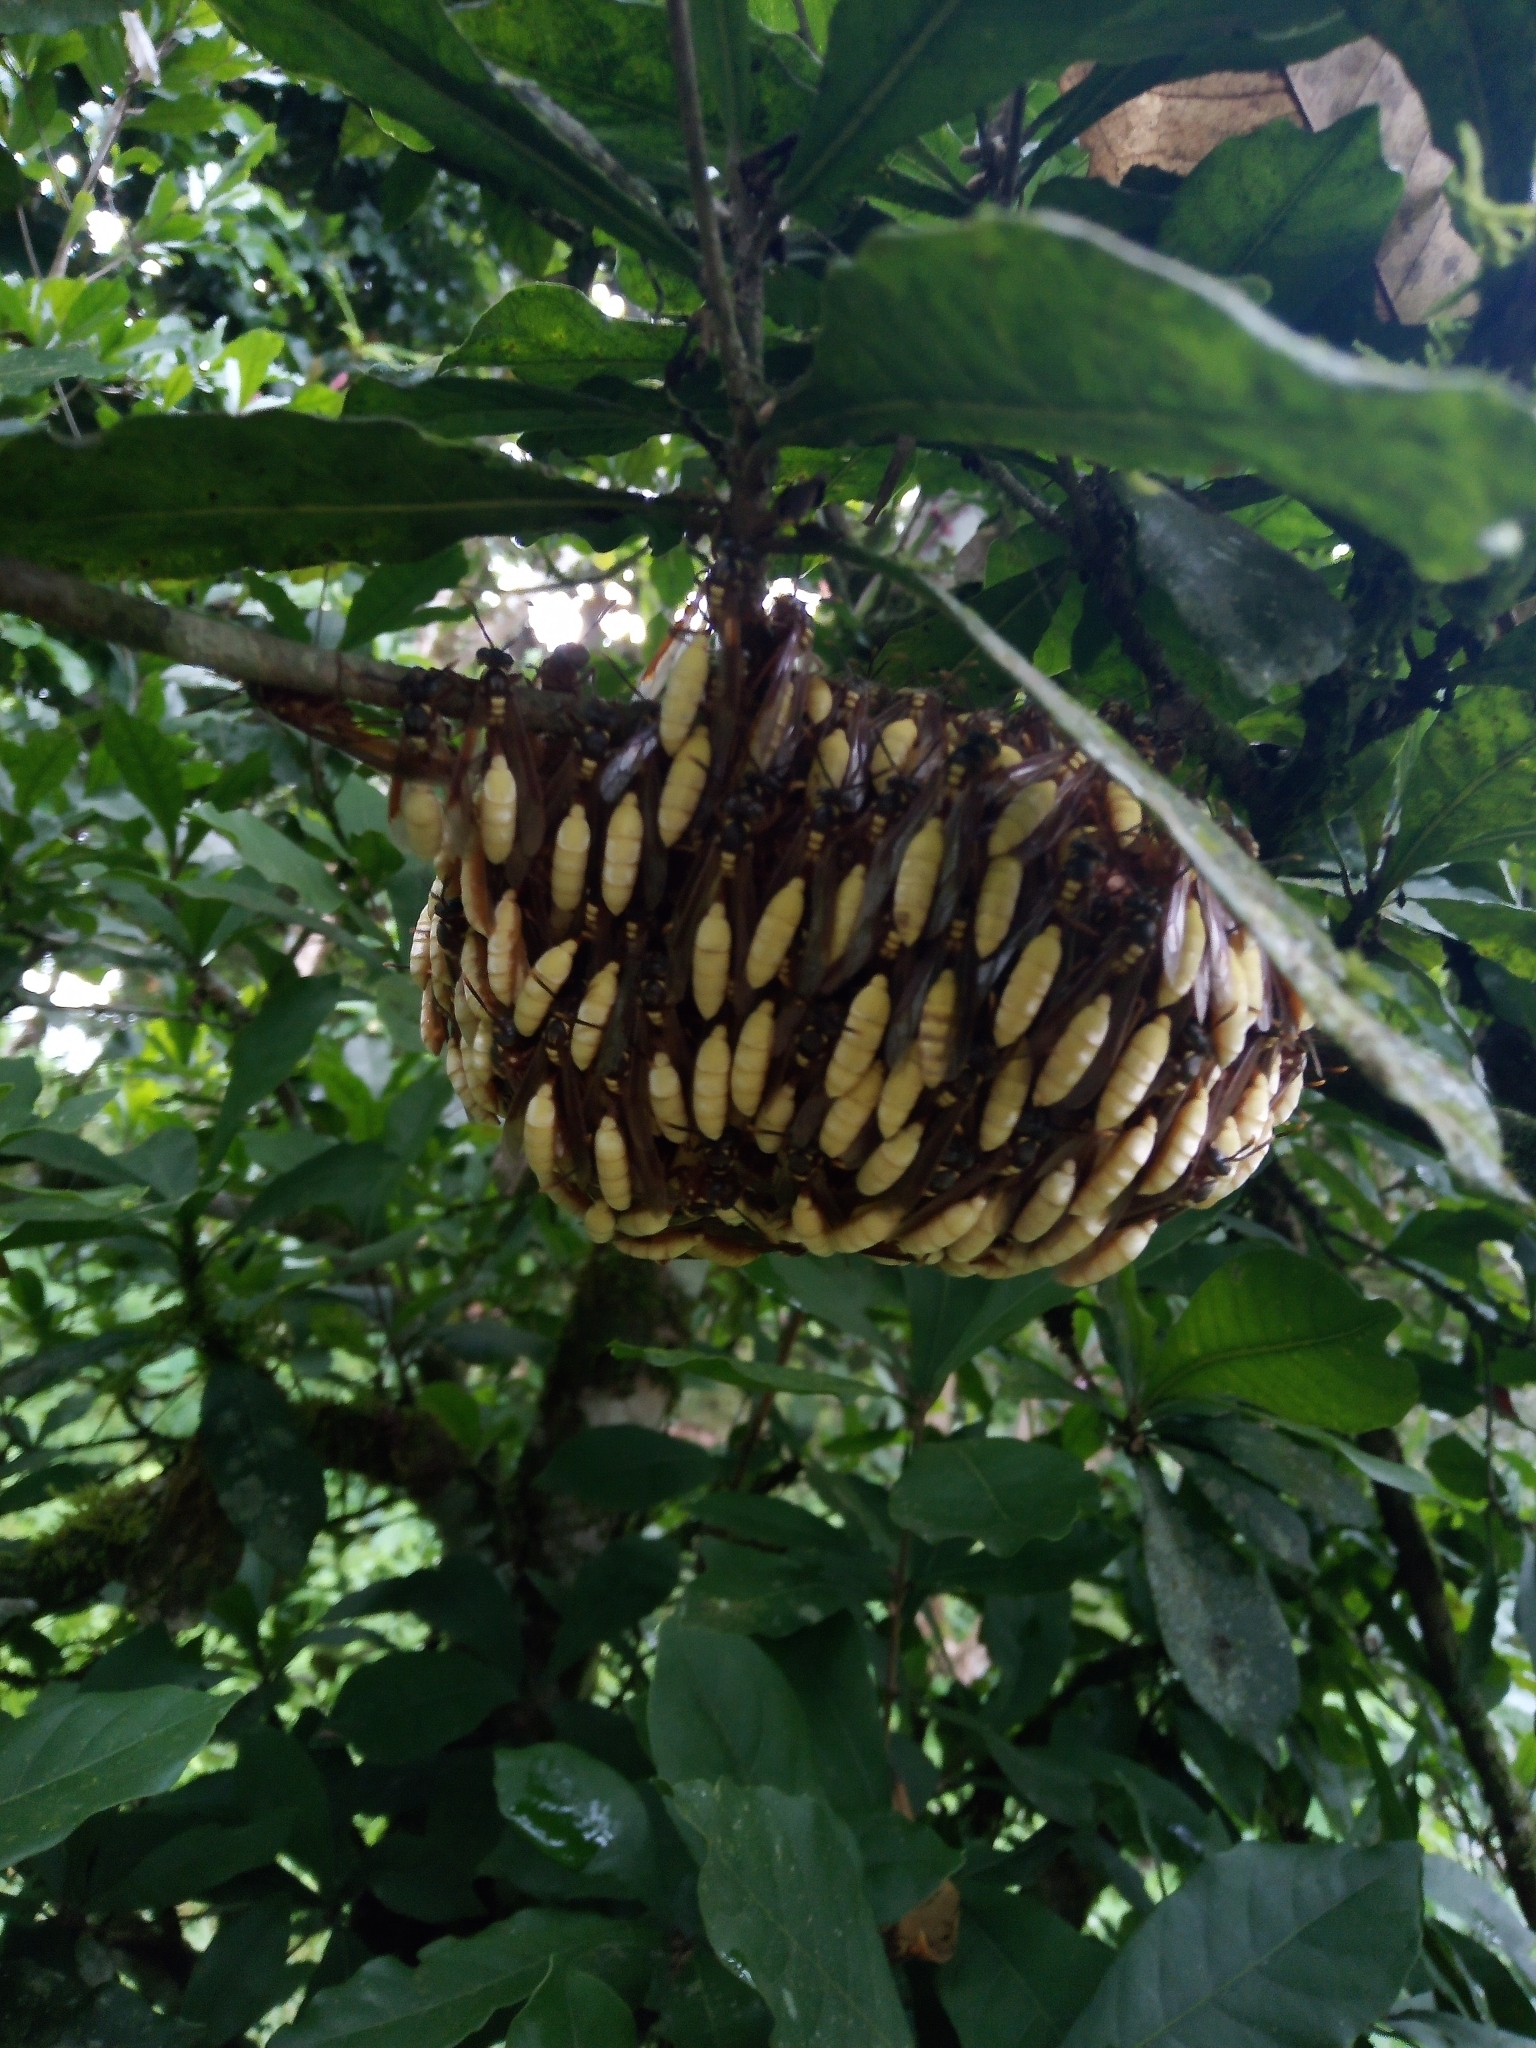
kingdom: Animalia
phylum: Arthropoda
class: Insecta
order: Hymenoptera
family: Vespidae
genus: Apoica
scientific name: Apoica pallens
